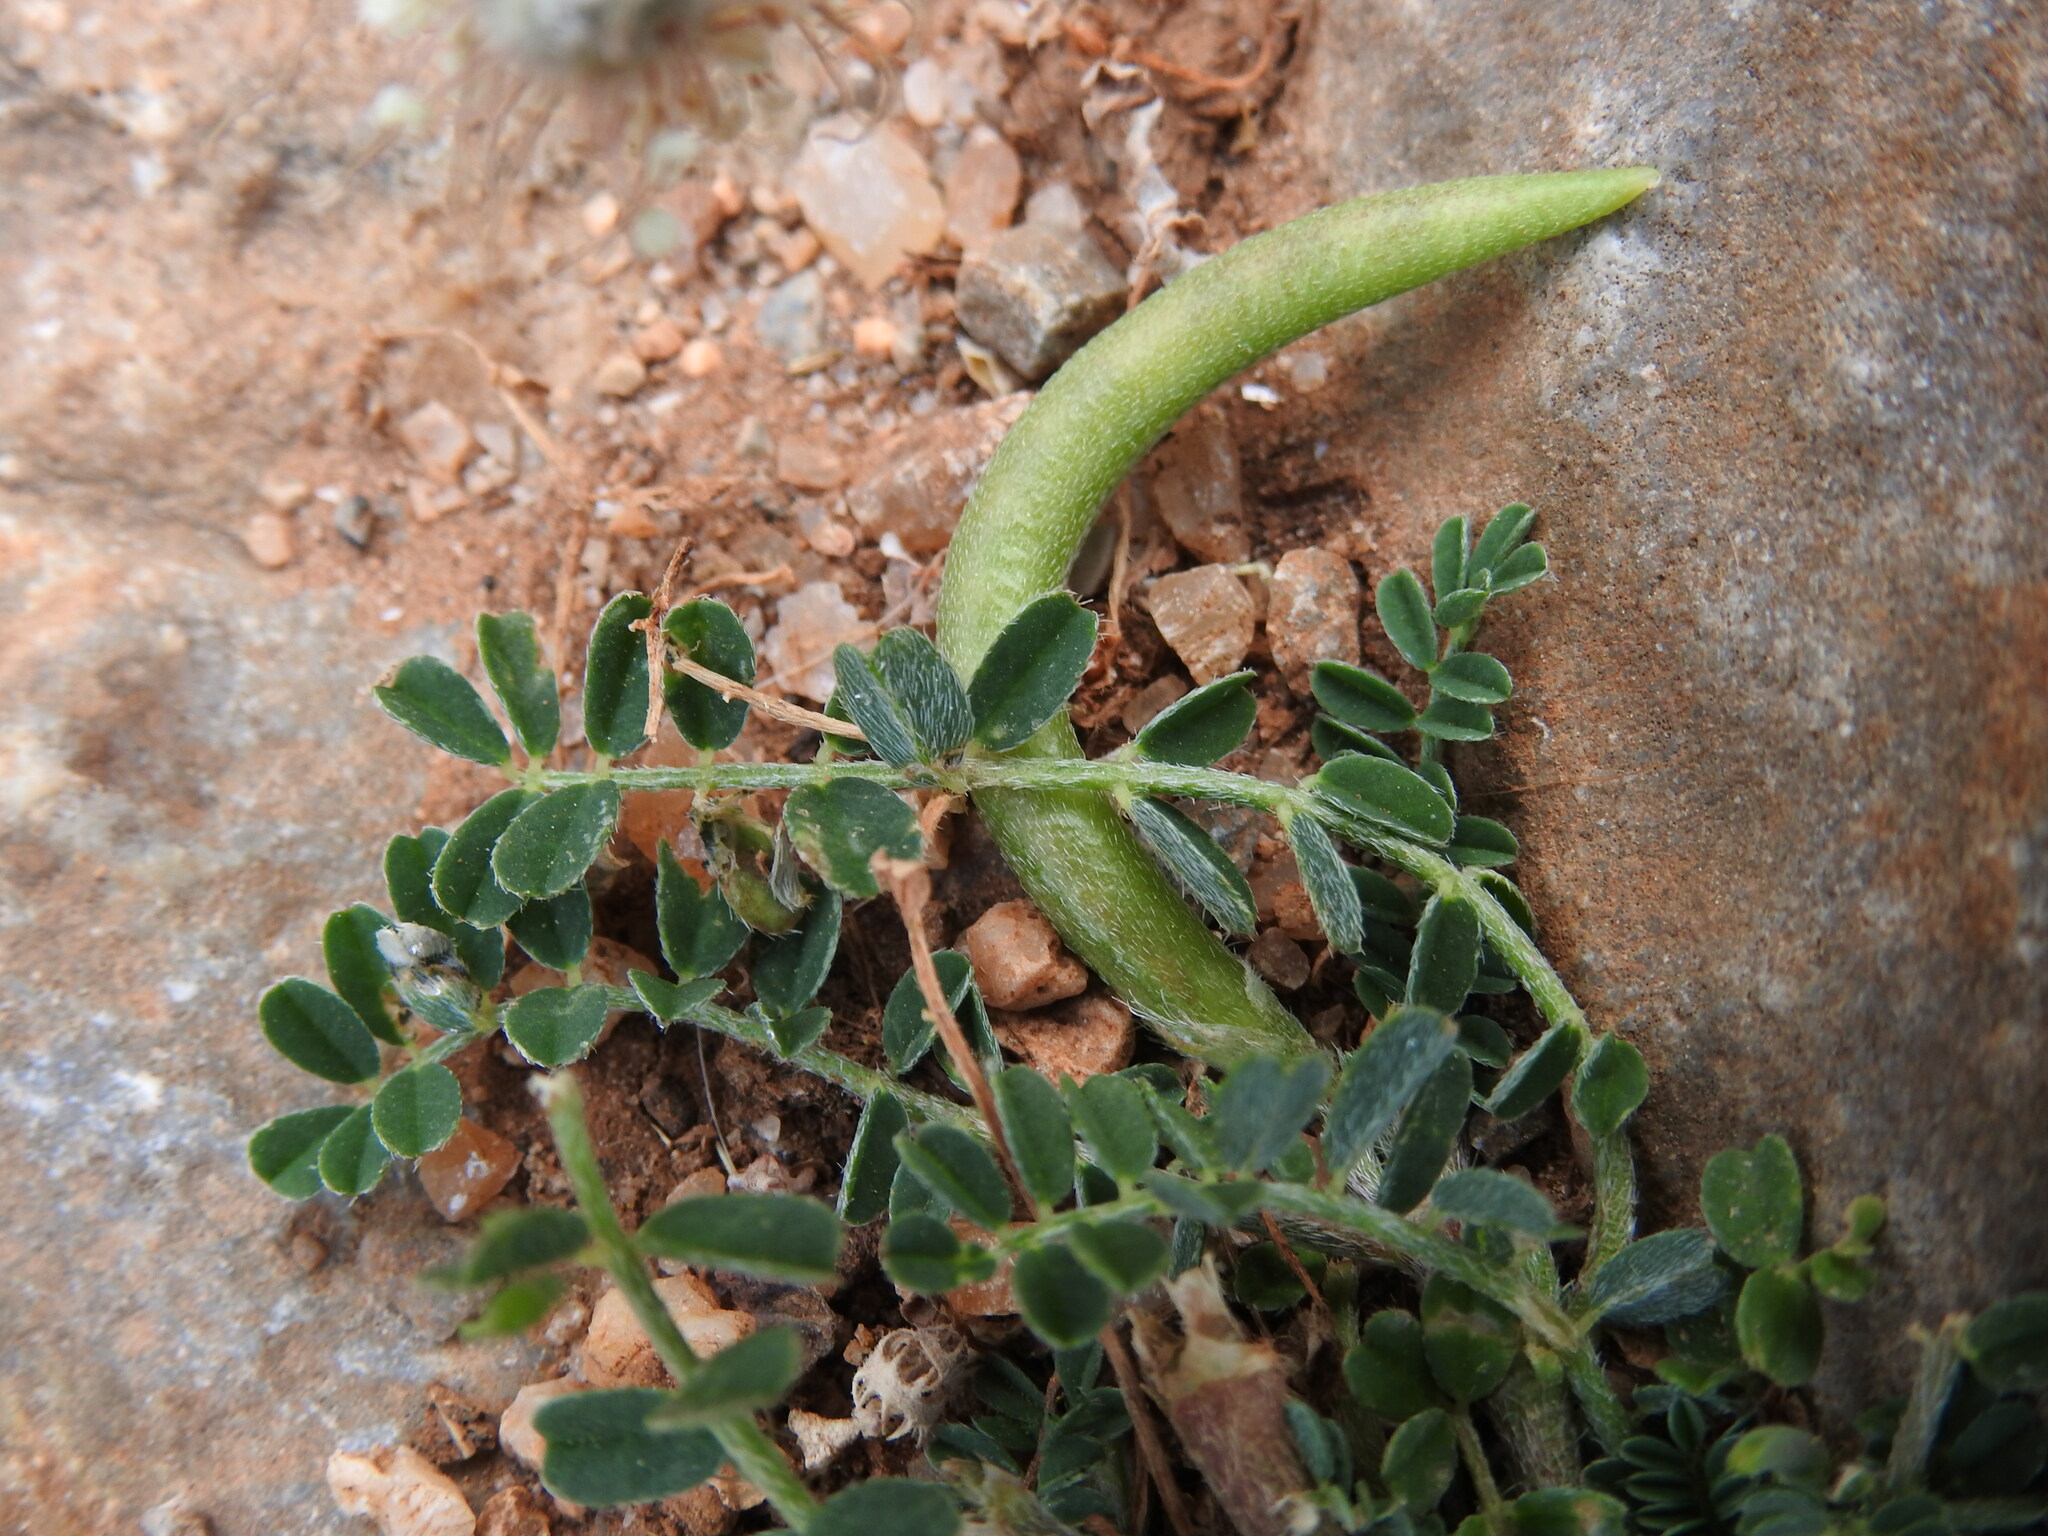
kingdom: Plantae
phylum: Tracheophyta
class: Magnoliopsida
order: Fabales
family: Fabaceae
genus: Astragalus
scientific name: Astragalus hamosus
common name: European milkvetch
